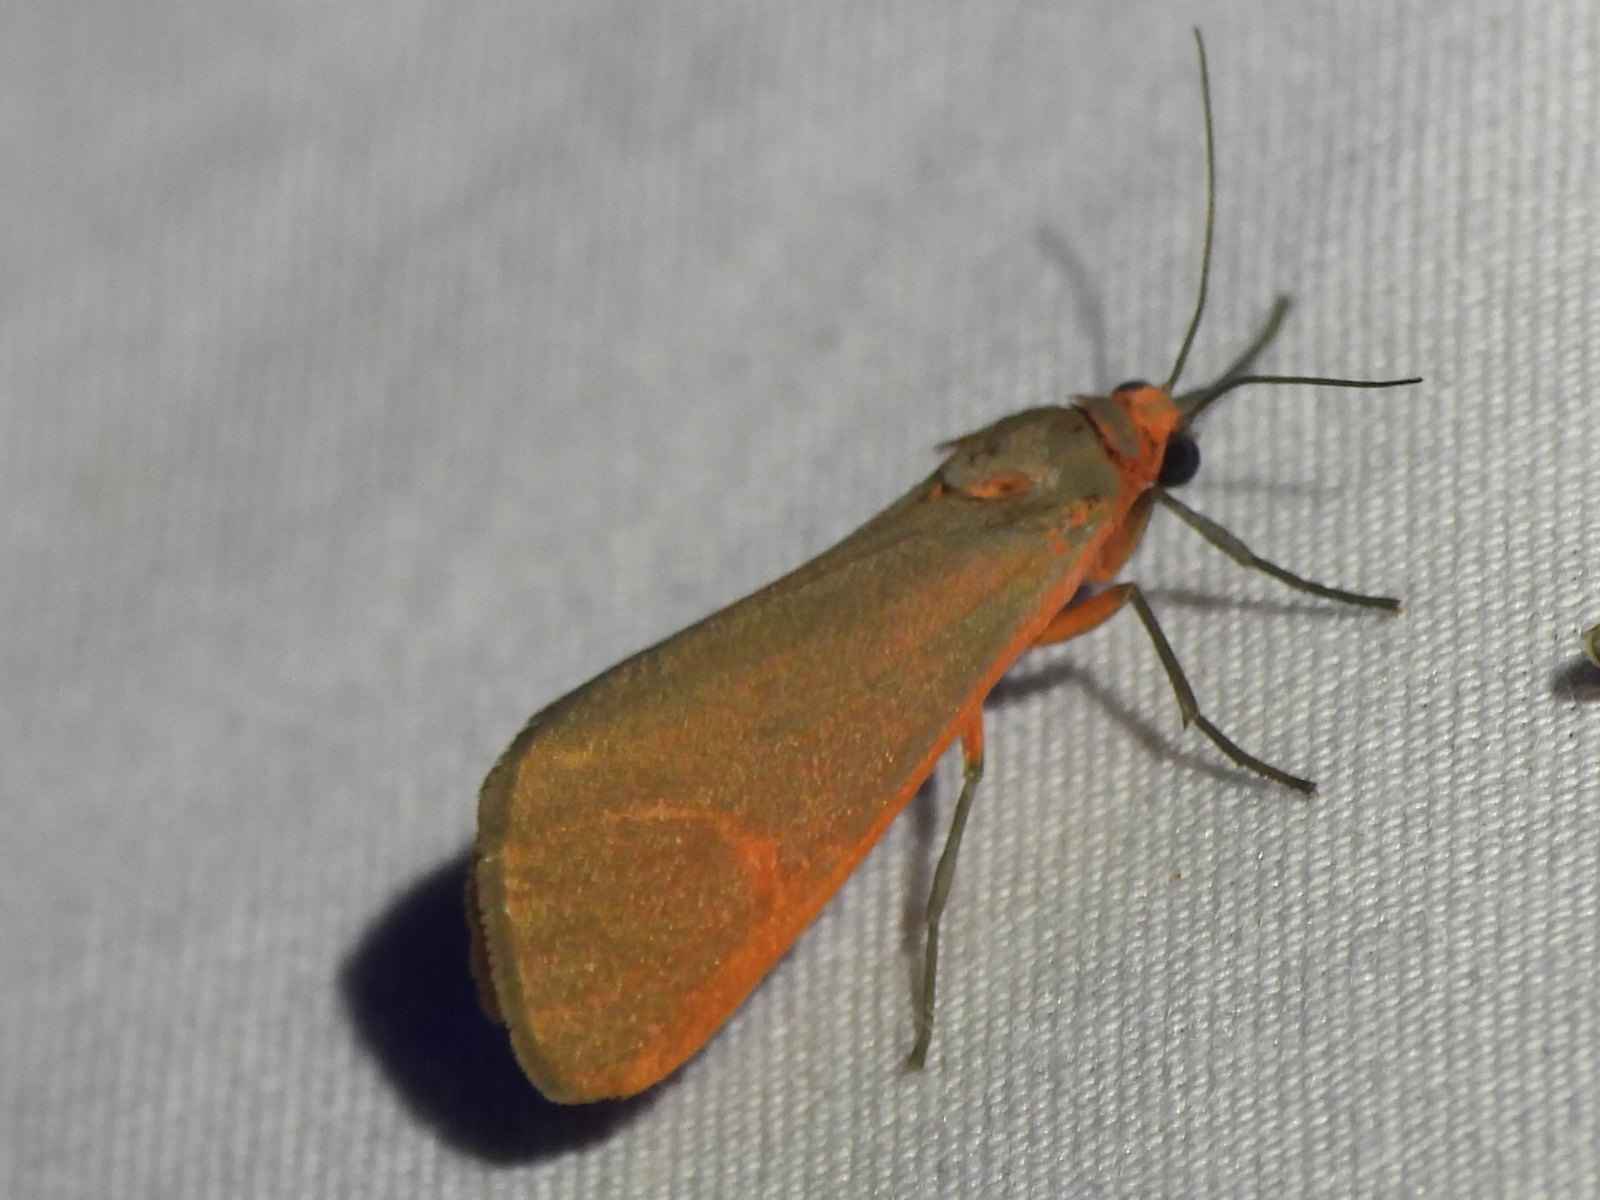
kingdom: Animalia
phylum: Arthropoda
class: Insecta
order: Lepidoptera
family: Erebidae
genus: Virbia
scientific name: Virbia costata
